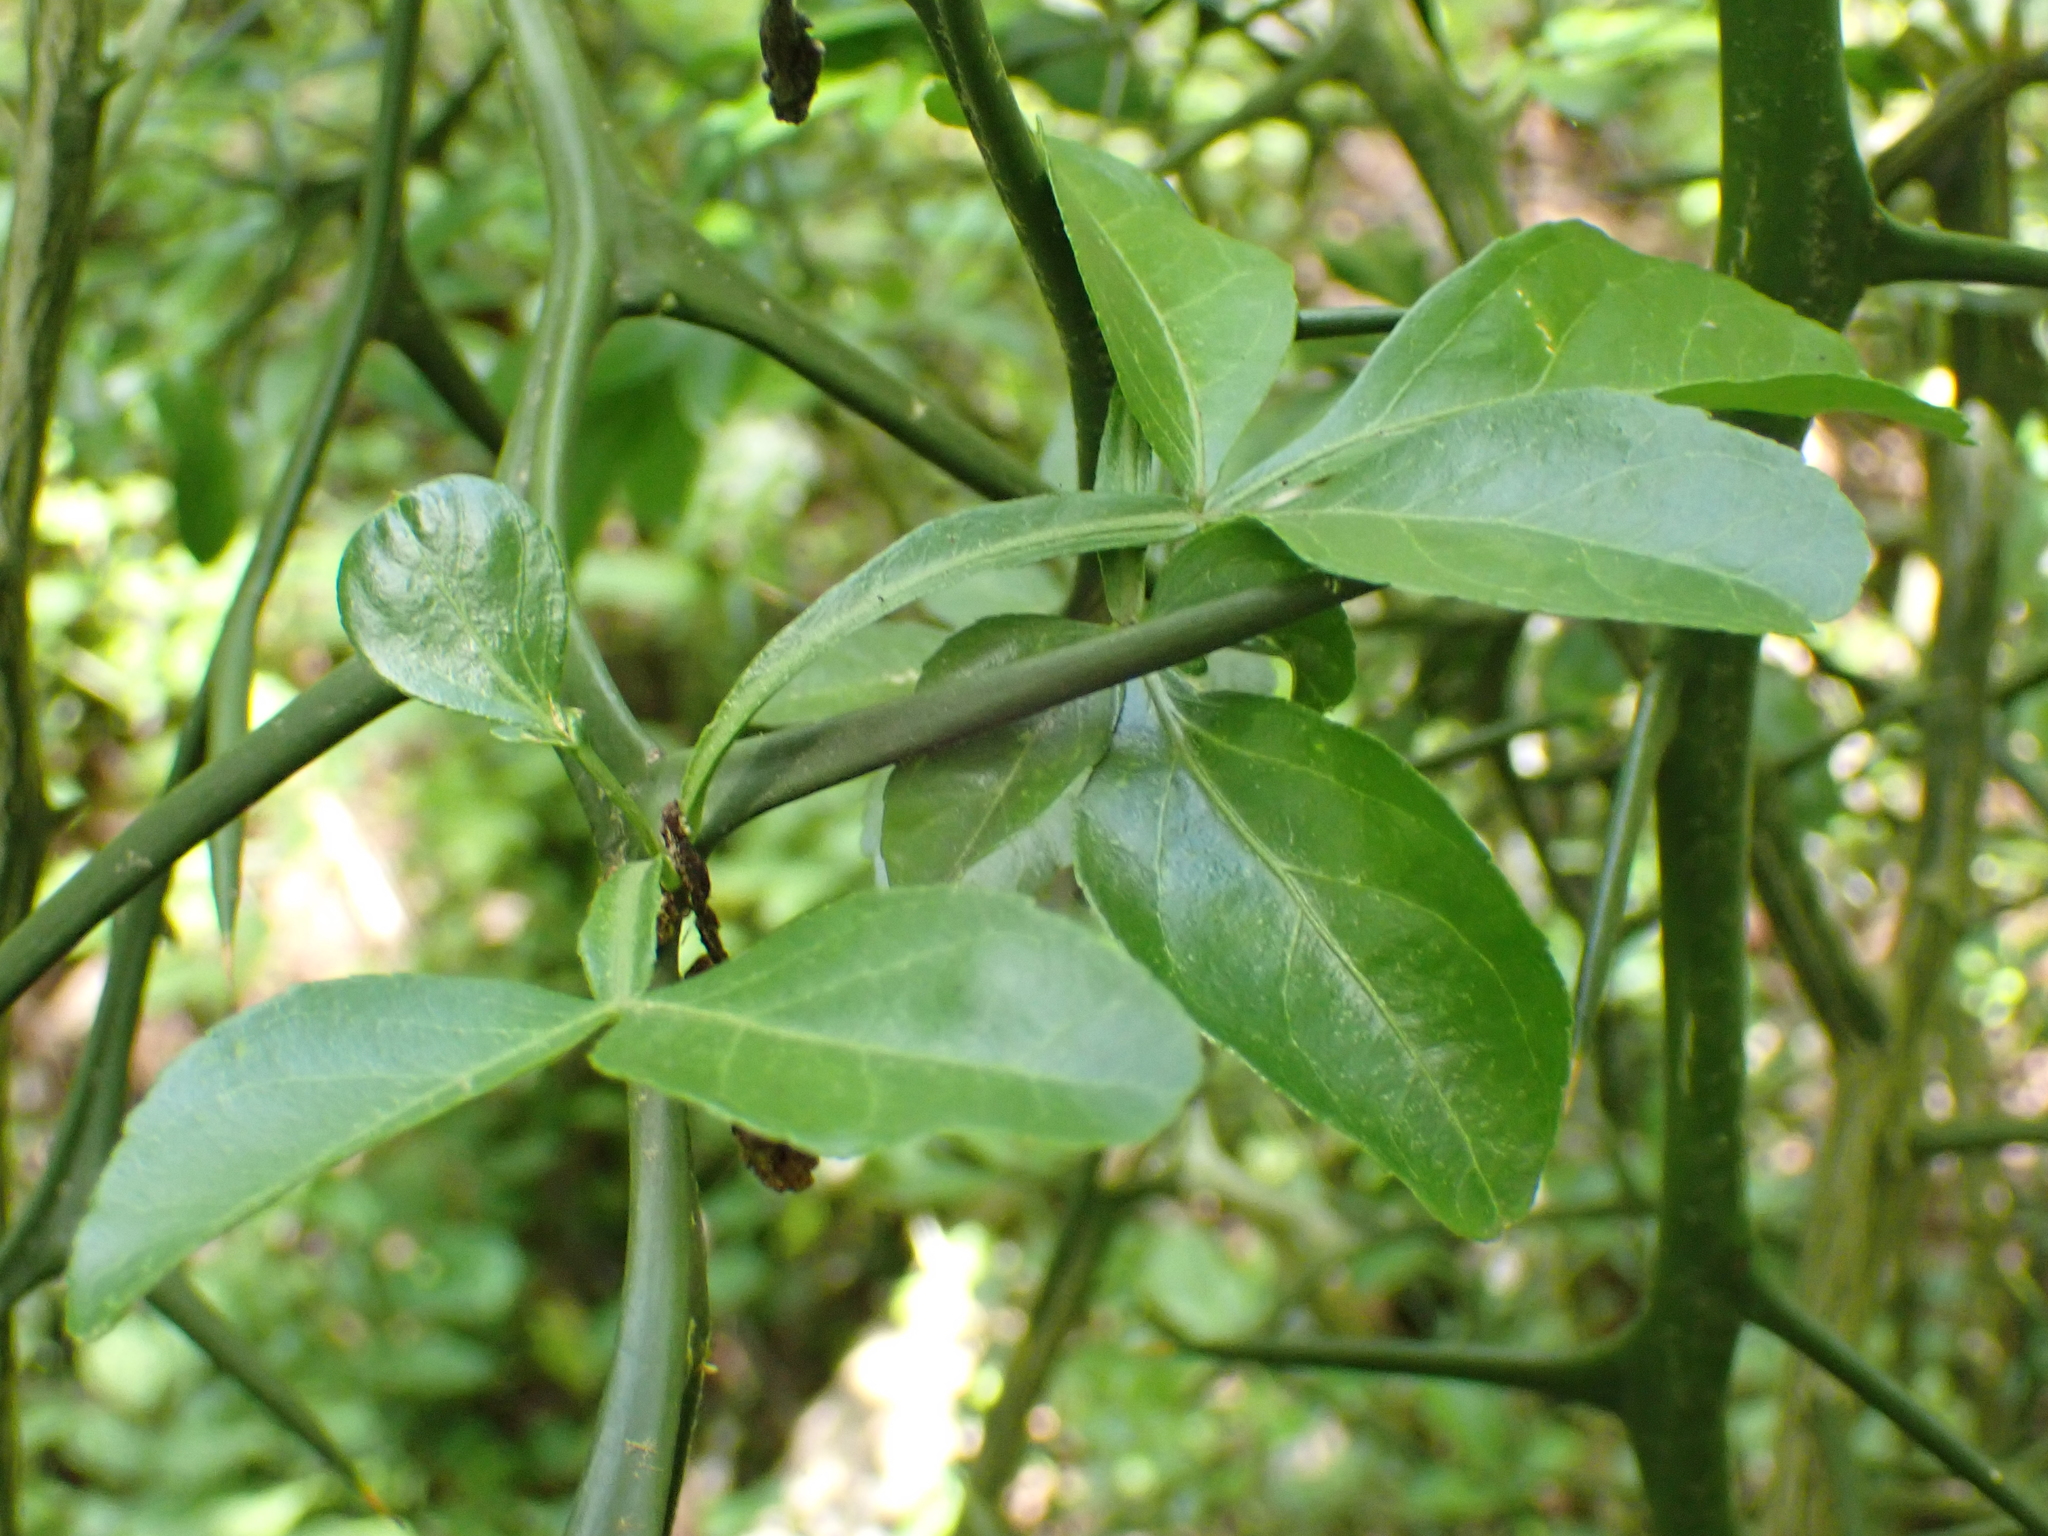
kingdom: Plantae
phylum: Tracheophyta
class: Magnoliopsida
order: Sapindales
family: Rutaceae
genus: Citrus
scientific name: Citrus trifoliata
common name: Japanese bitter-orange
